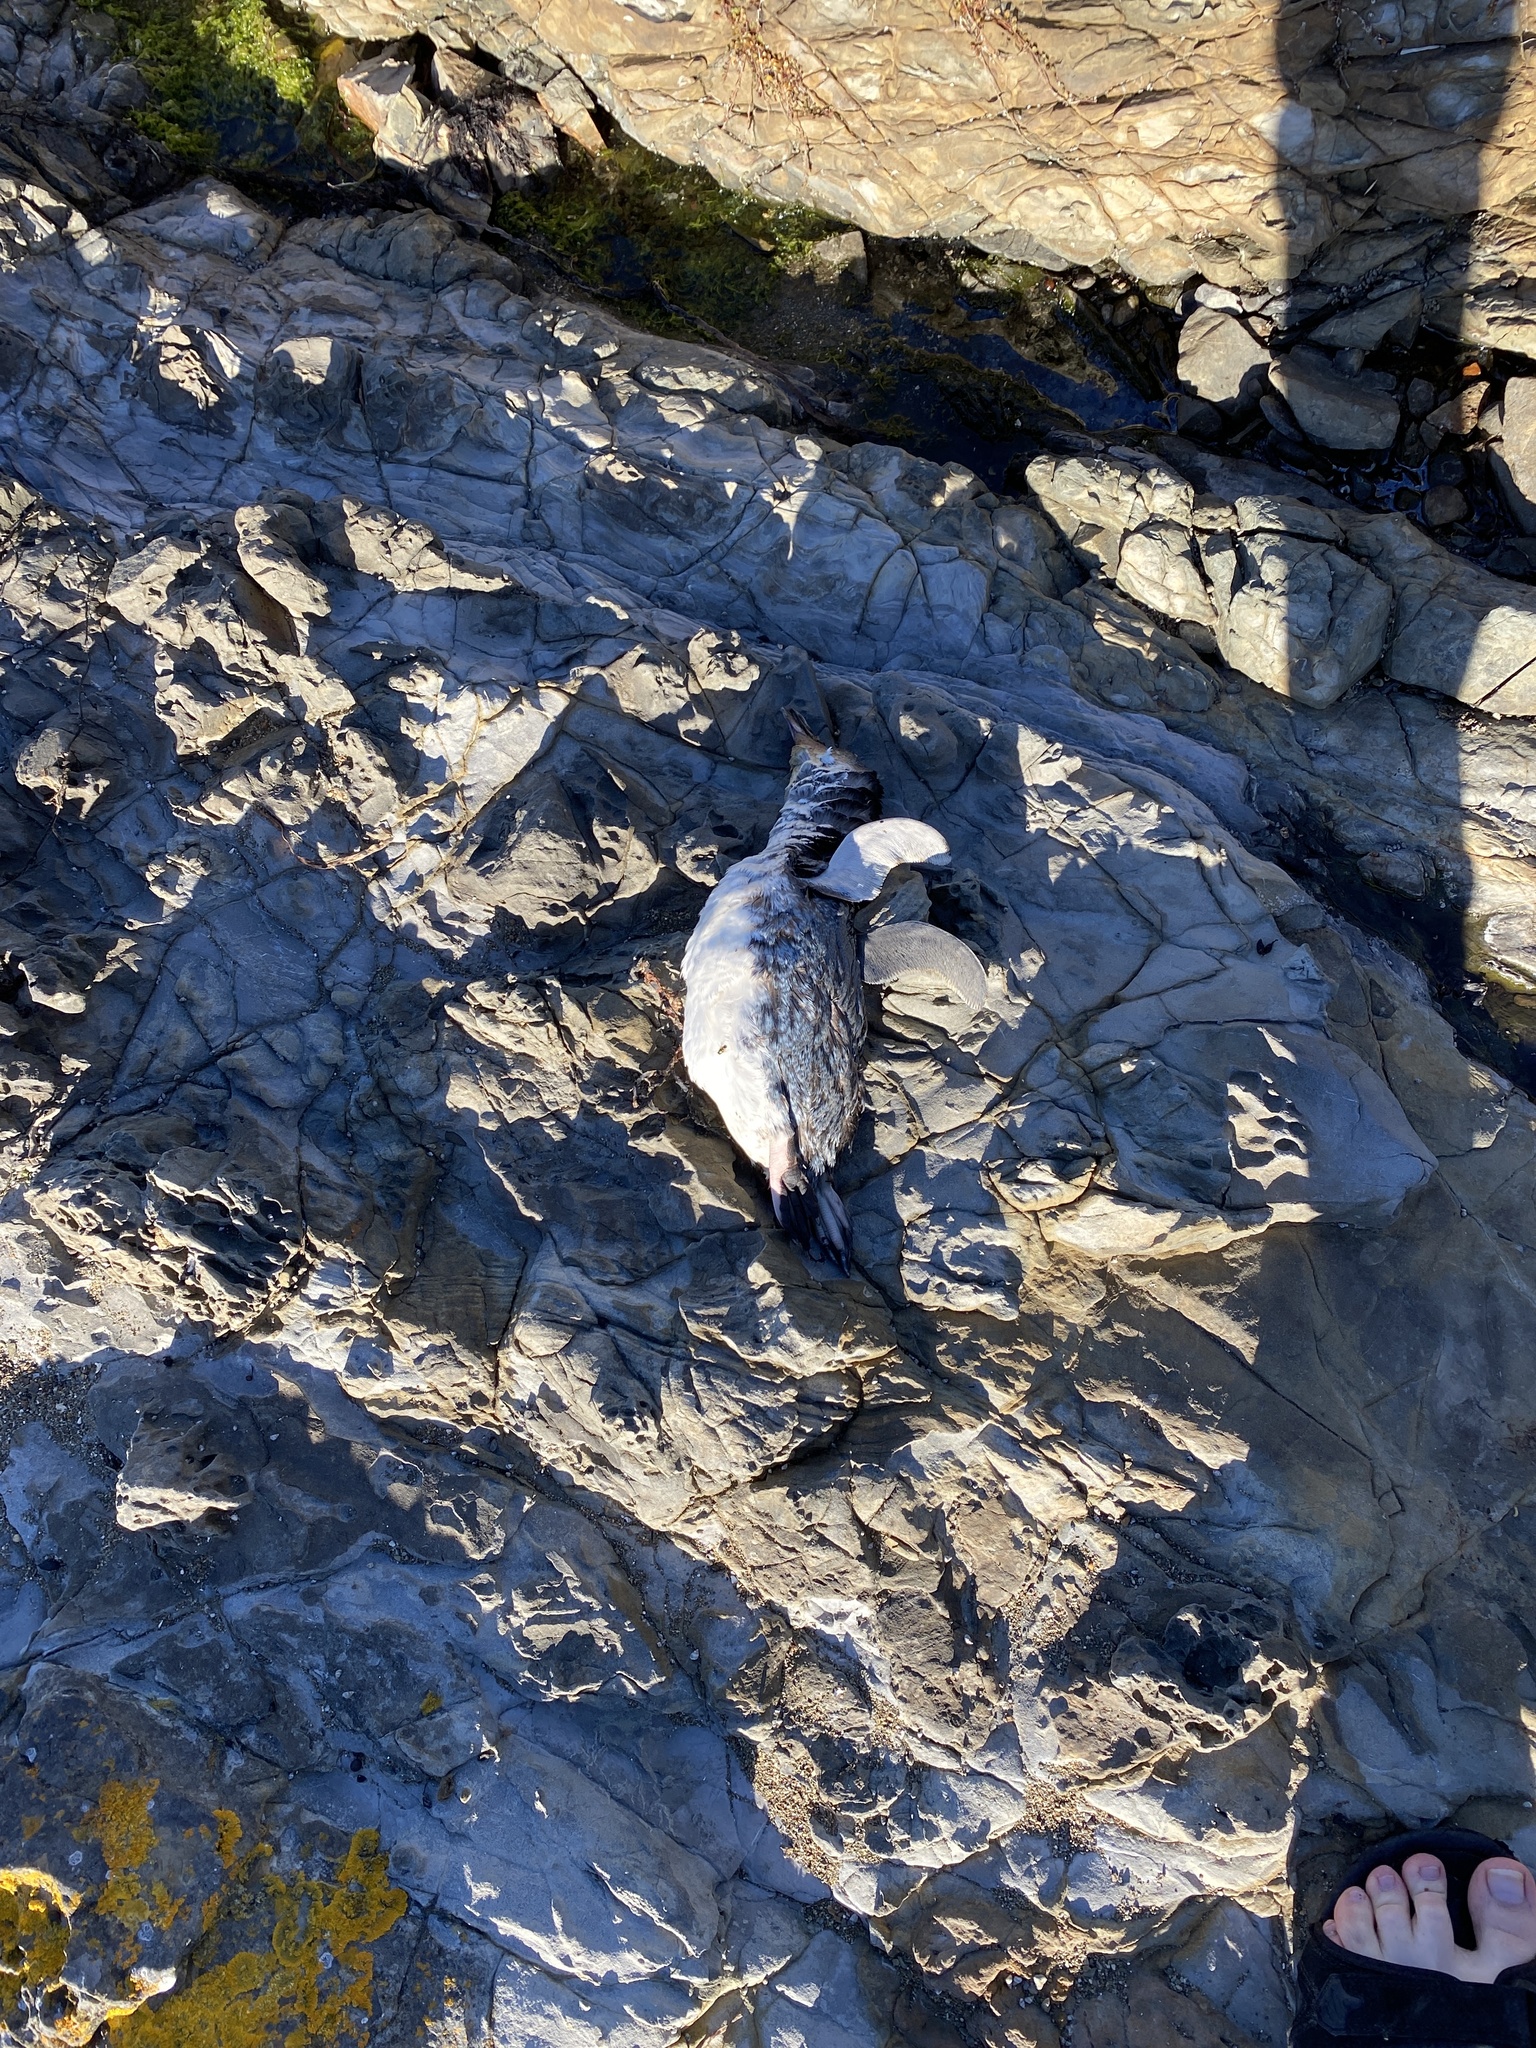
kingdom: Animalia
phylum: Chordata
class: Aves
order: Sphenisciformes
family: Spheniscidae
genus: Eudyptula
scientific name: Eudyptula minor
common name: Little penguin
